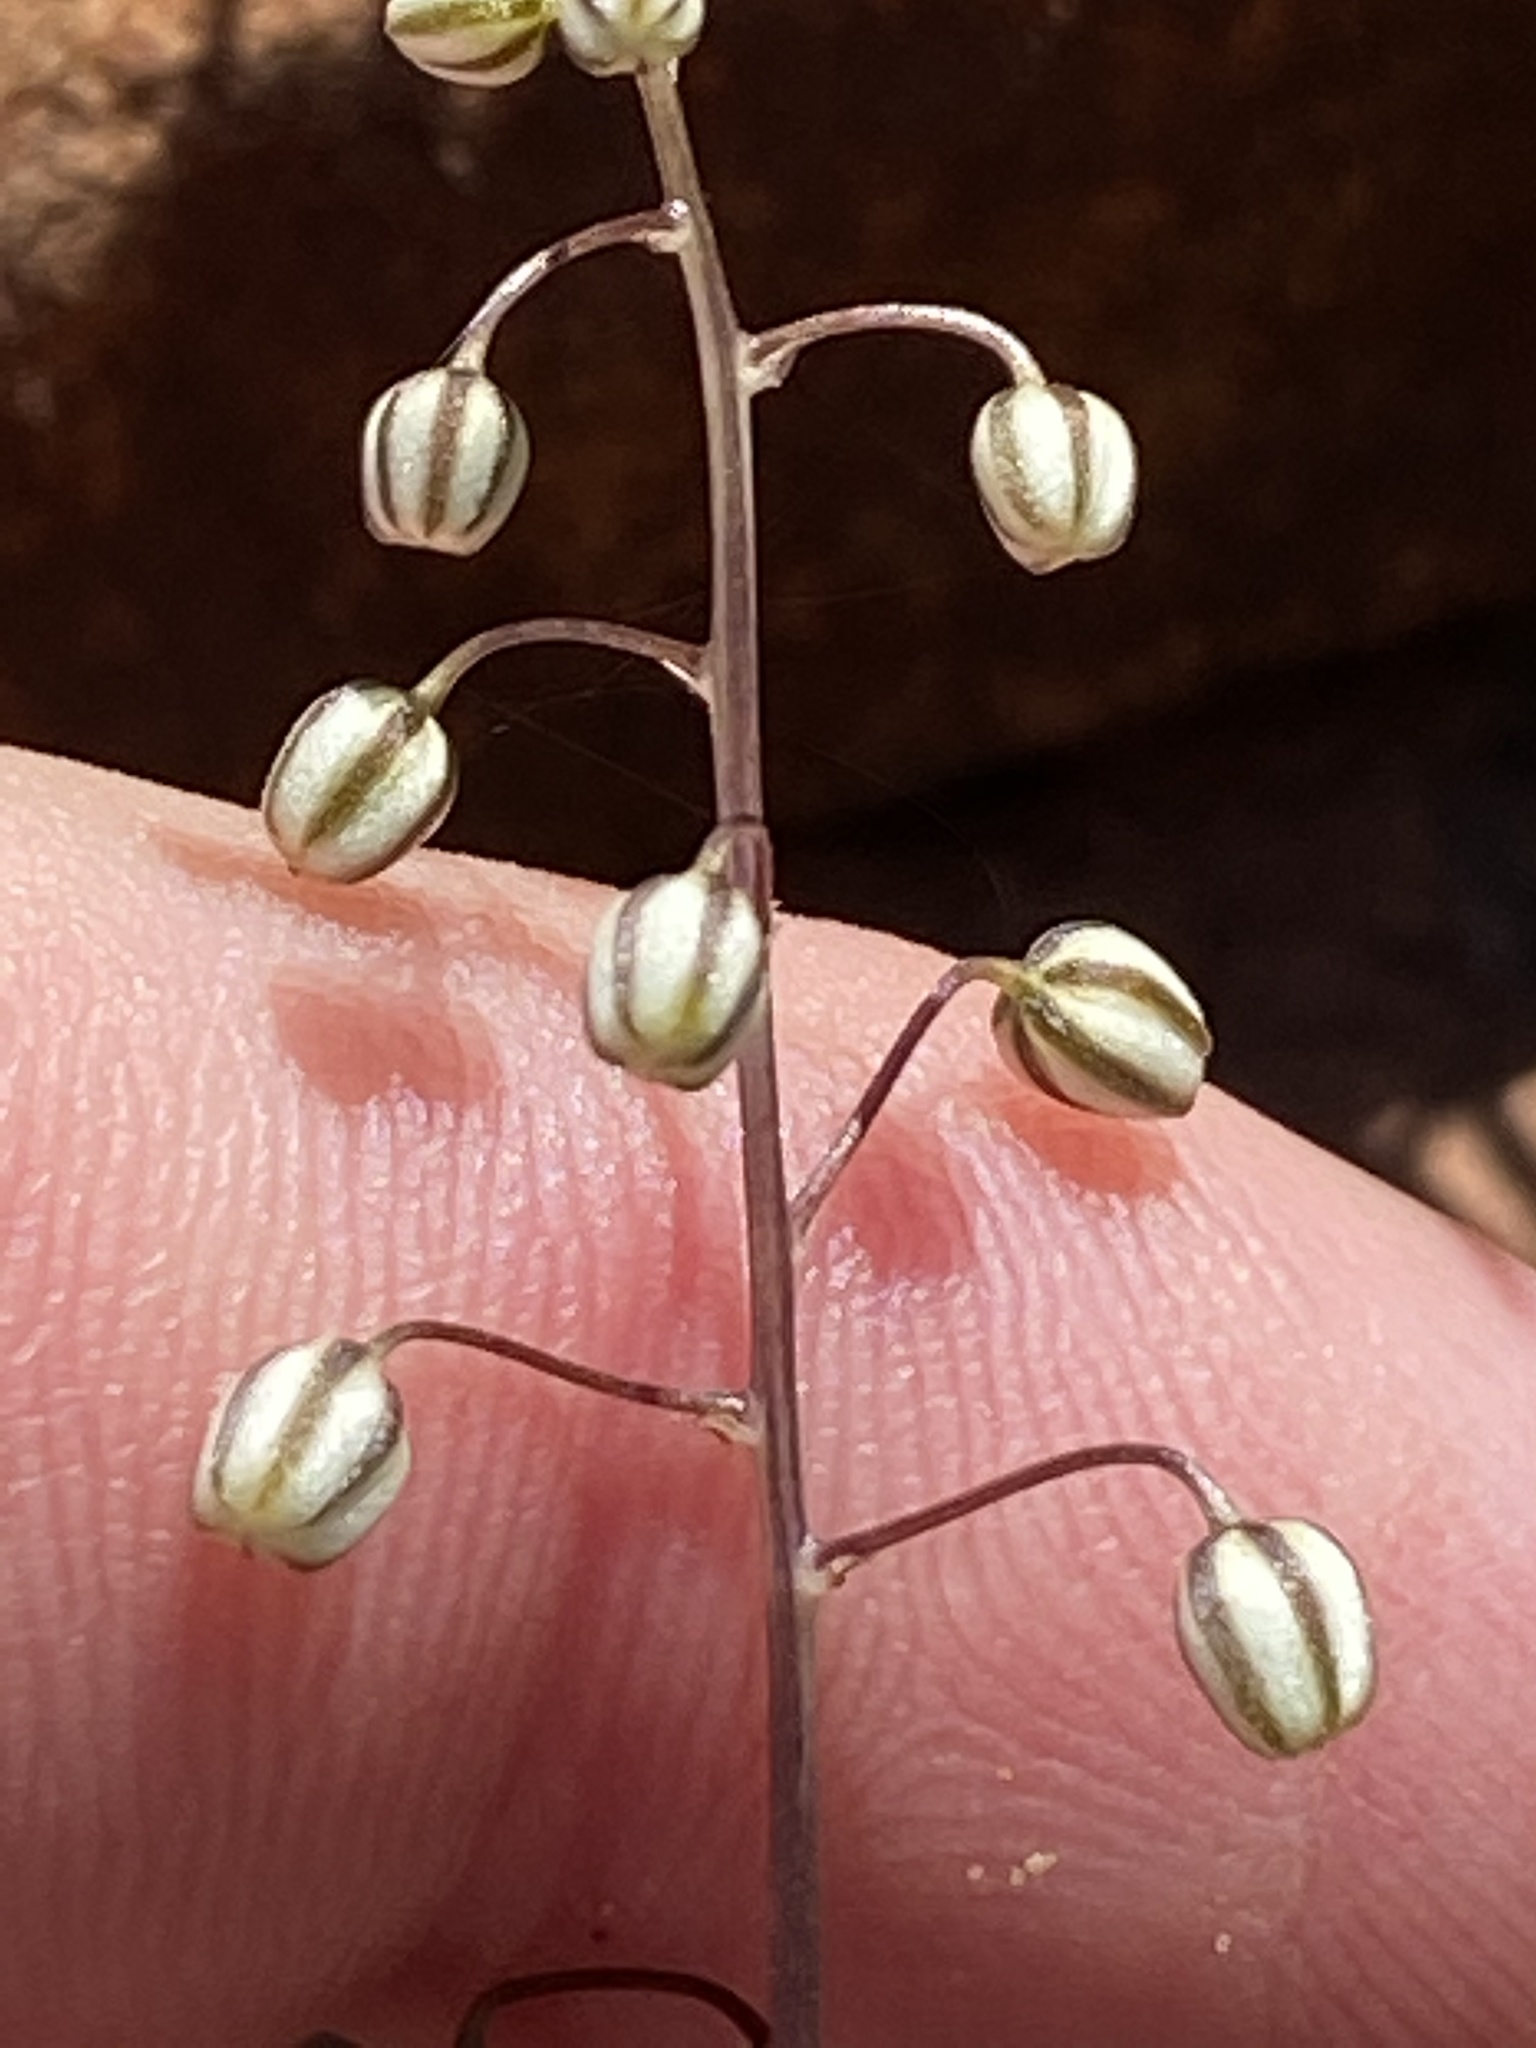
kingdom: Plantae
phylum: Tracheophyta
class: Liliopsida
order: Asparagales
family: Asparagaceae
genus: Drimia
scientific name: Drimia sclerophylla
